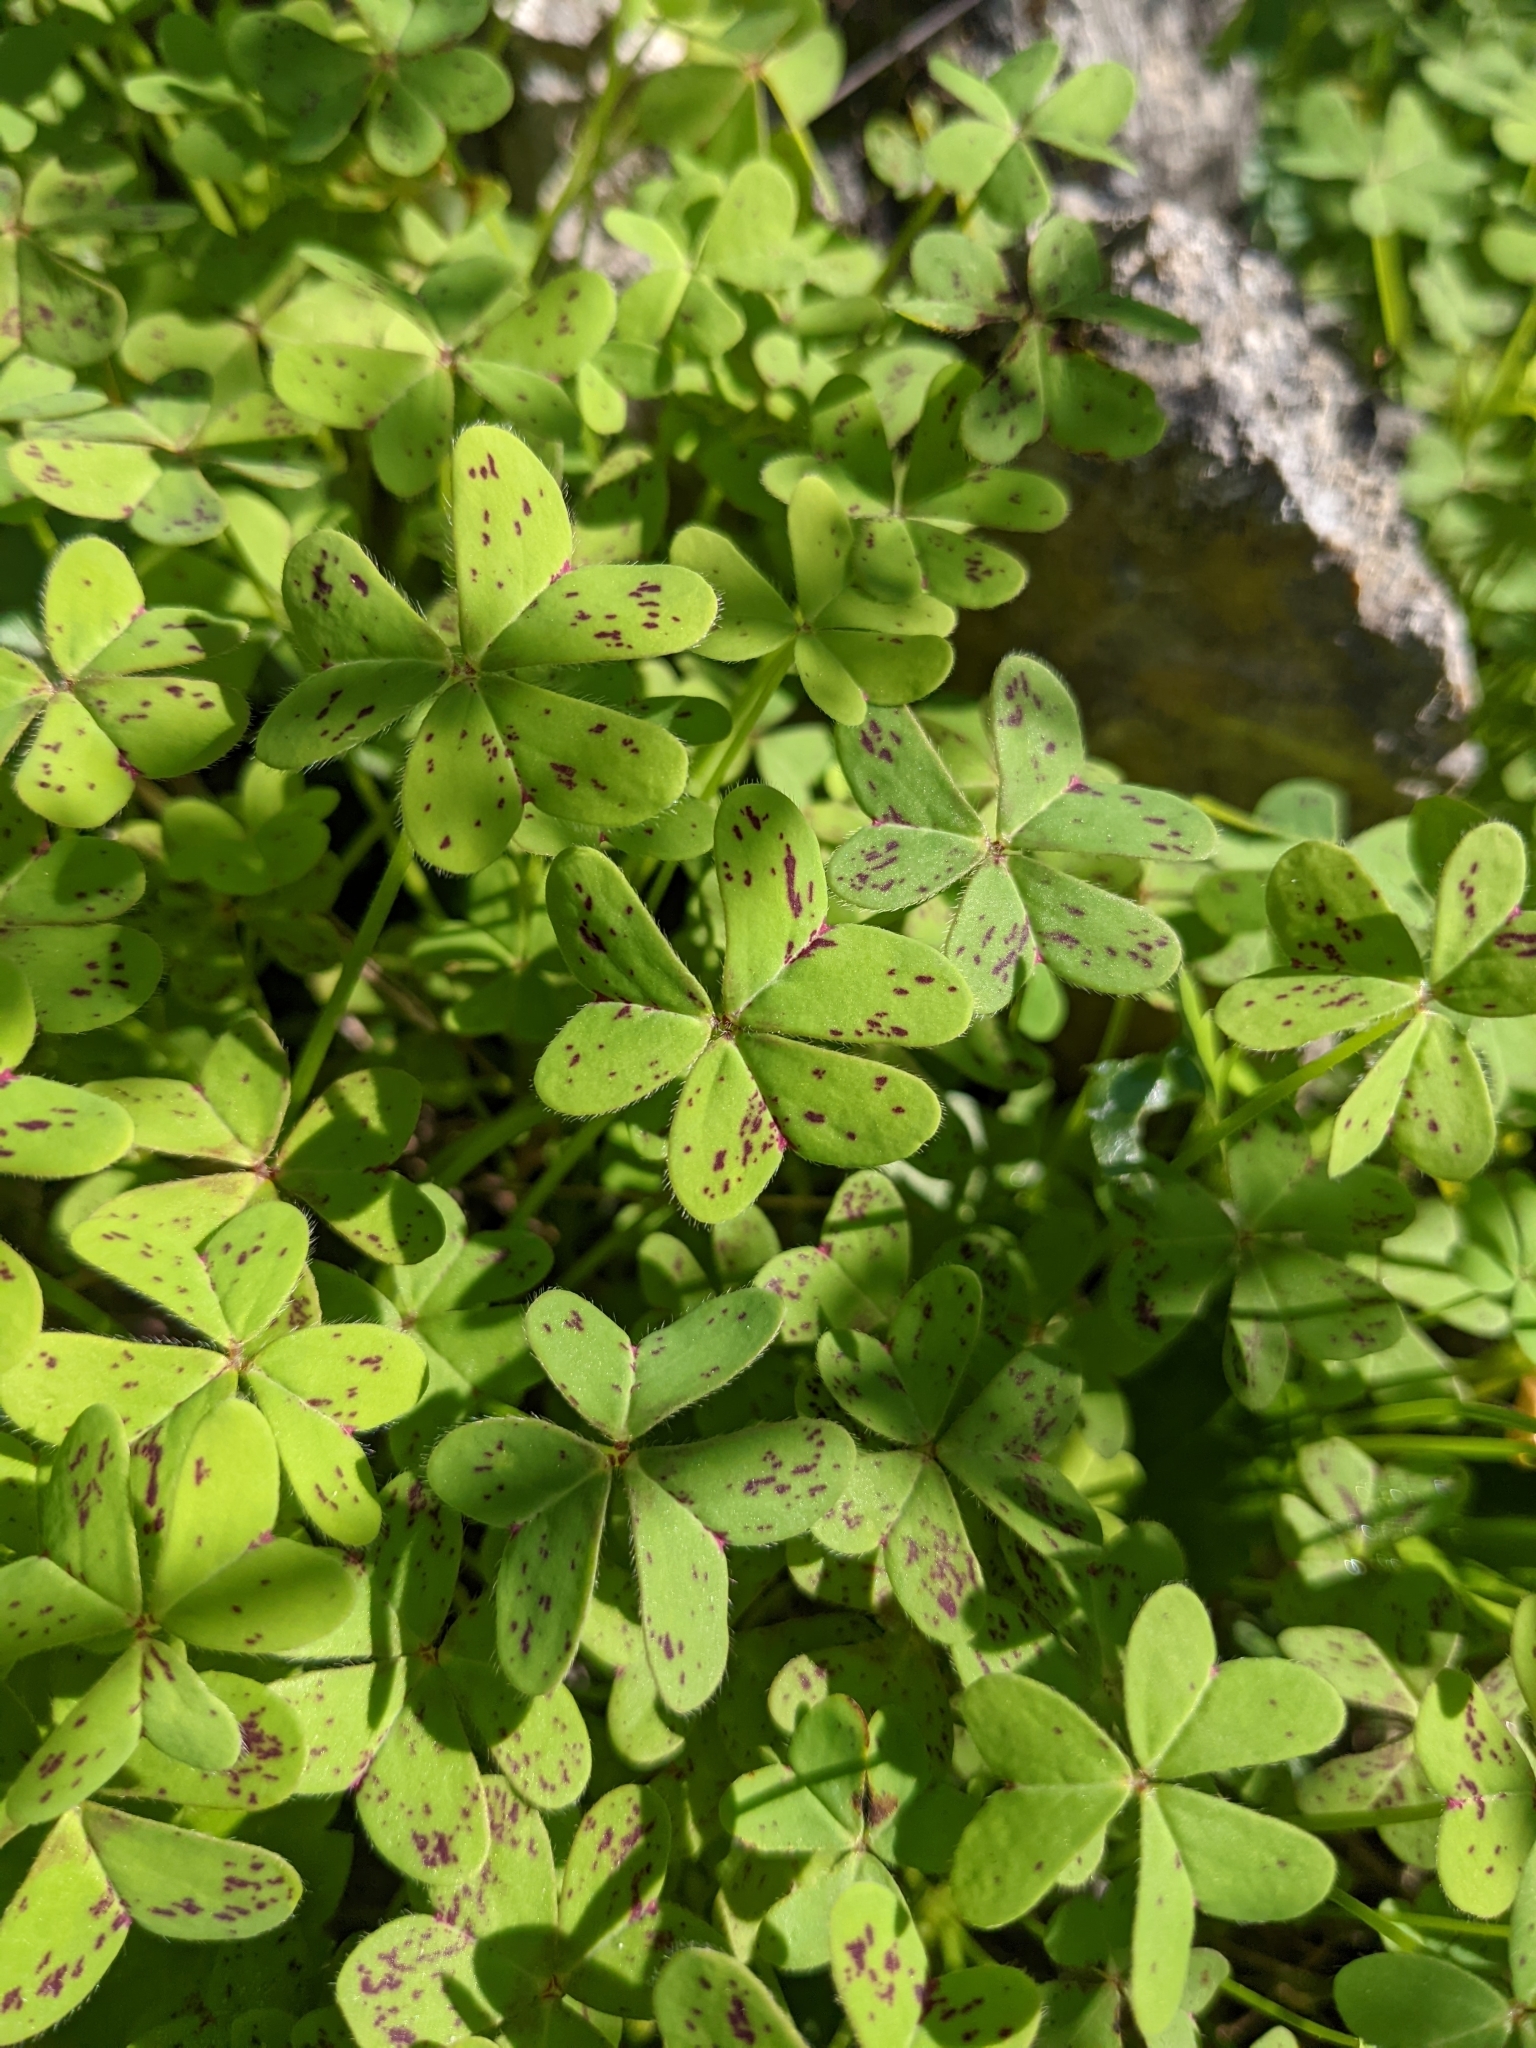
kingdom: Plantae
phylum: Tracheophyta
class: Magnoliopsida
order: Oxalidales
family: Oxalidaceae
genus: Oxalis
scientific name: Oxalis pes-caprae
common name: Bermuda-buttercup
